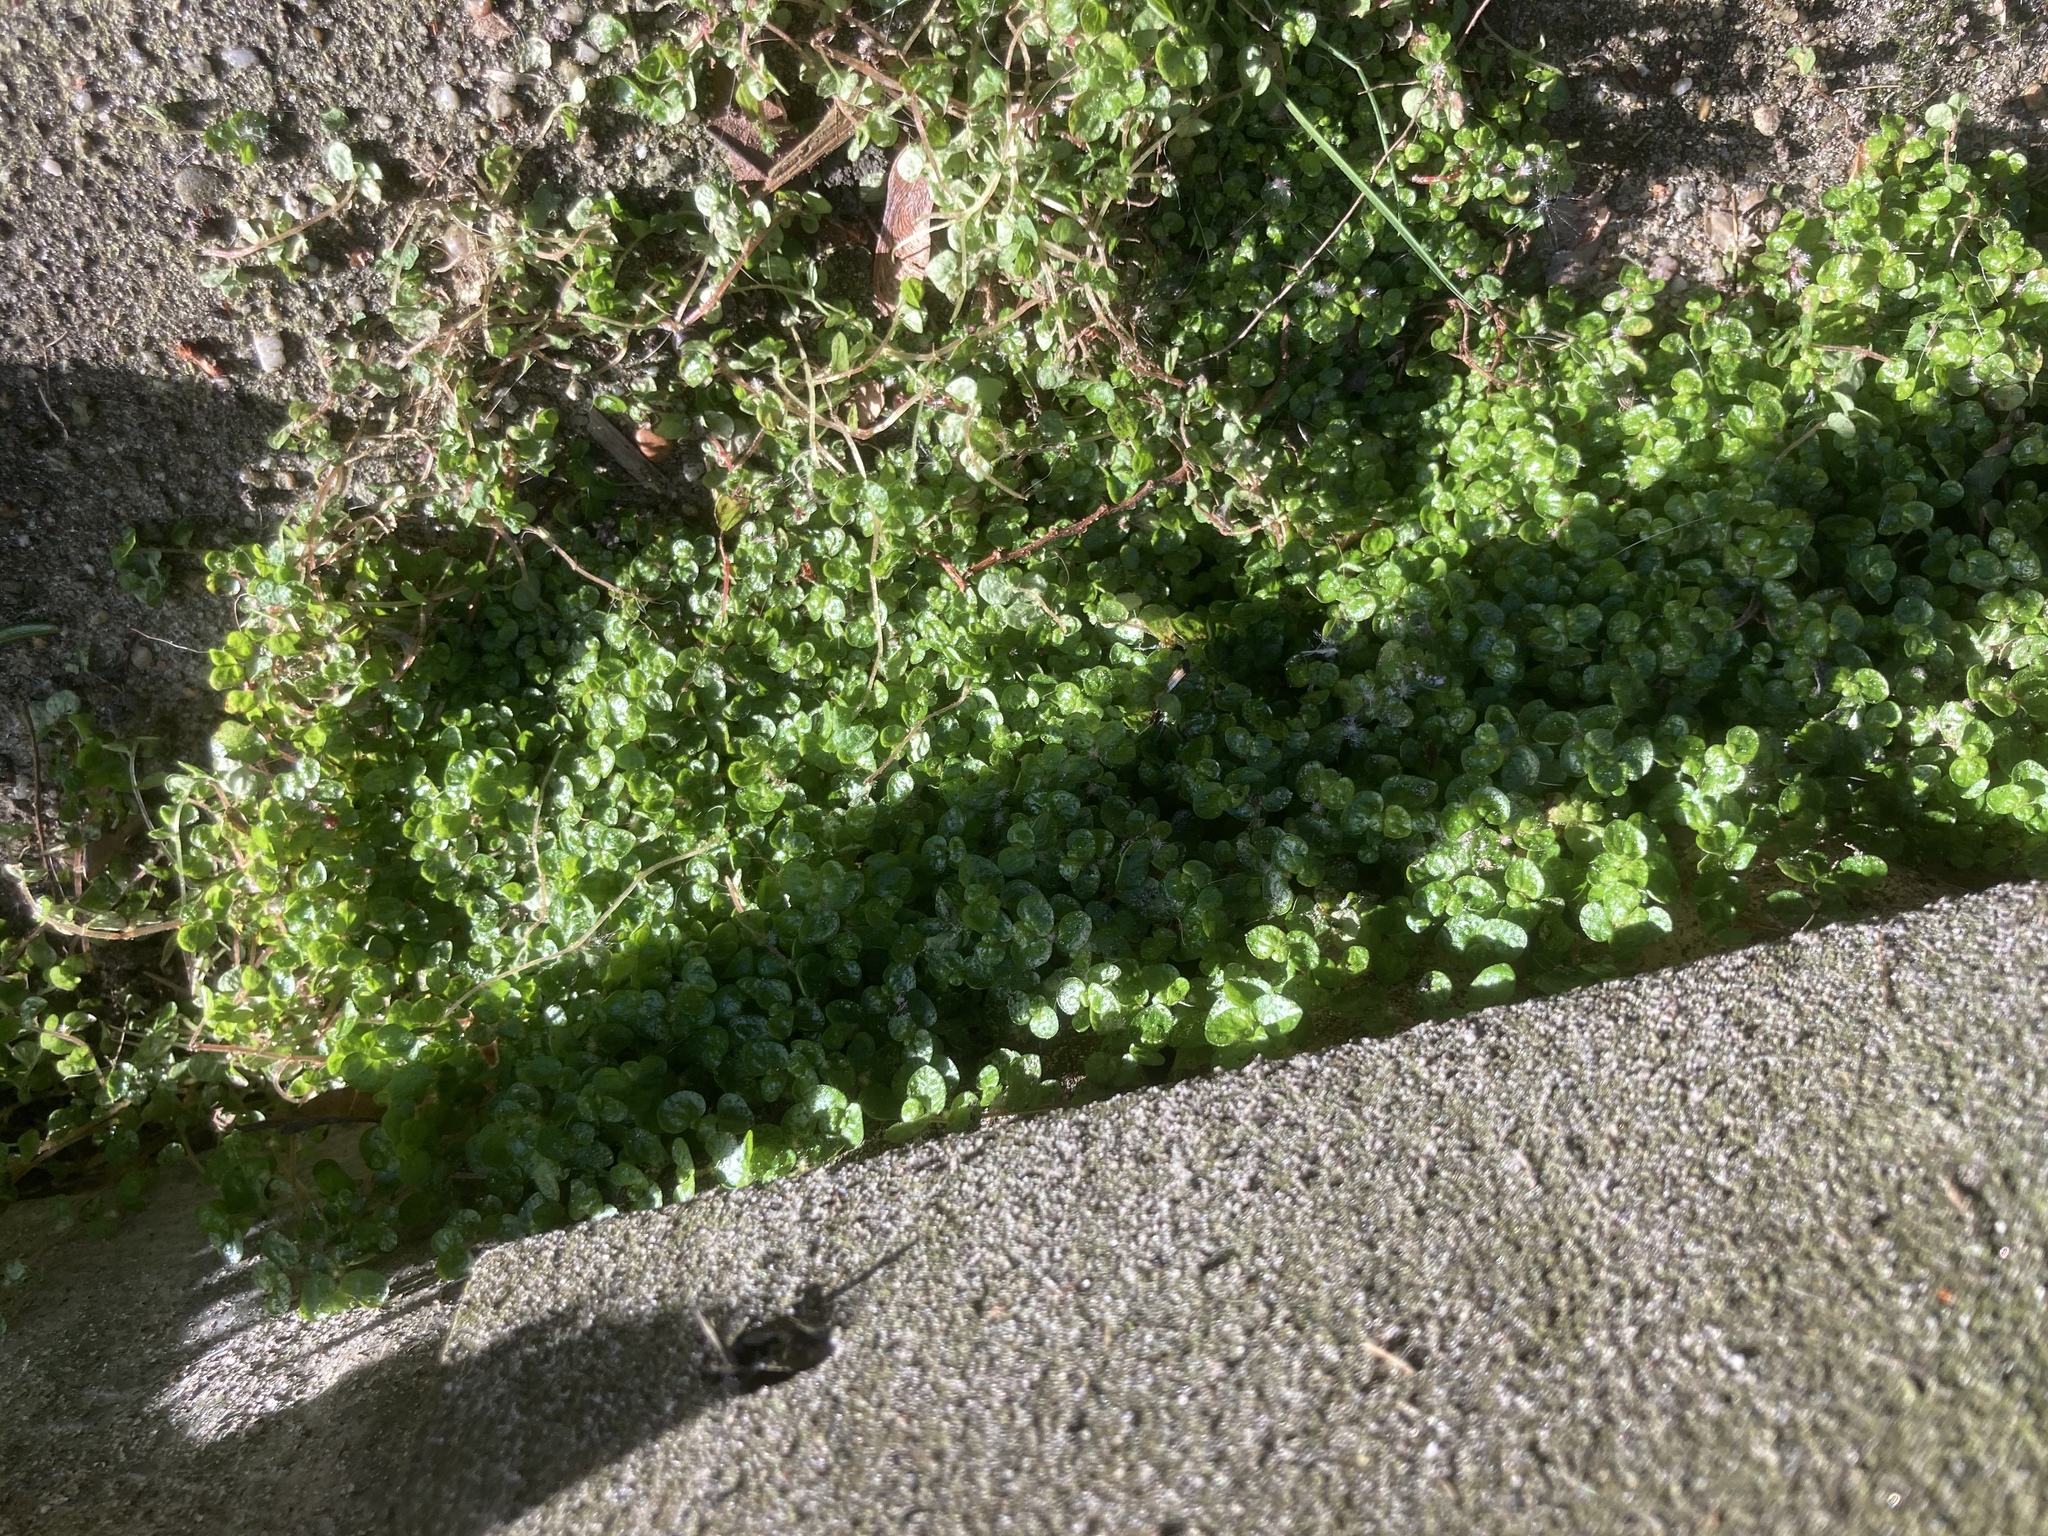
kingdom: Plantae
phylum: Tracheophyta
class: Magnoliopsida
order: Rosales
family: Urticaceae
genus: Soleirolia
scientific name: Soleirolia soleirolii
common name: Mind-your-own-business
